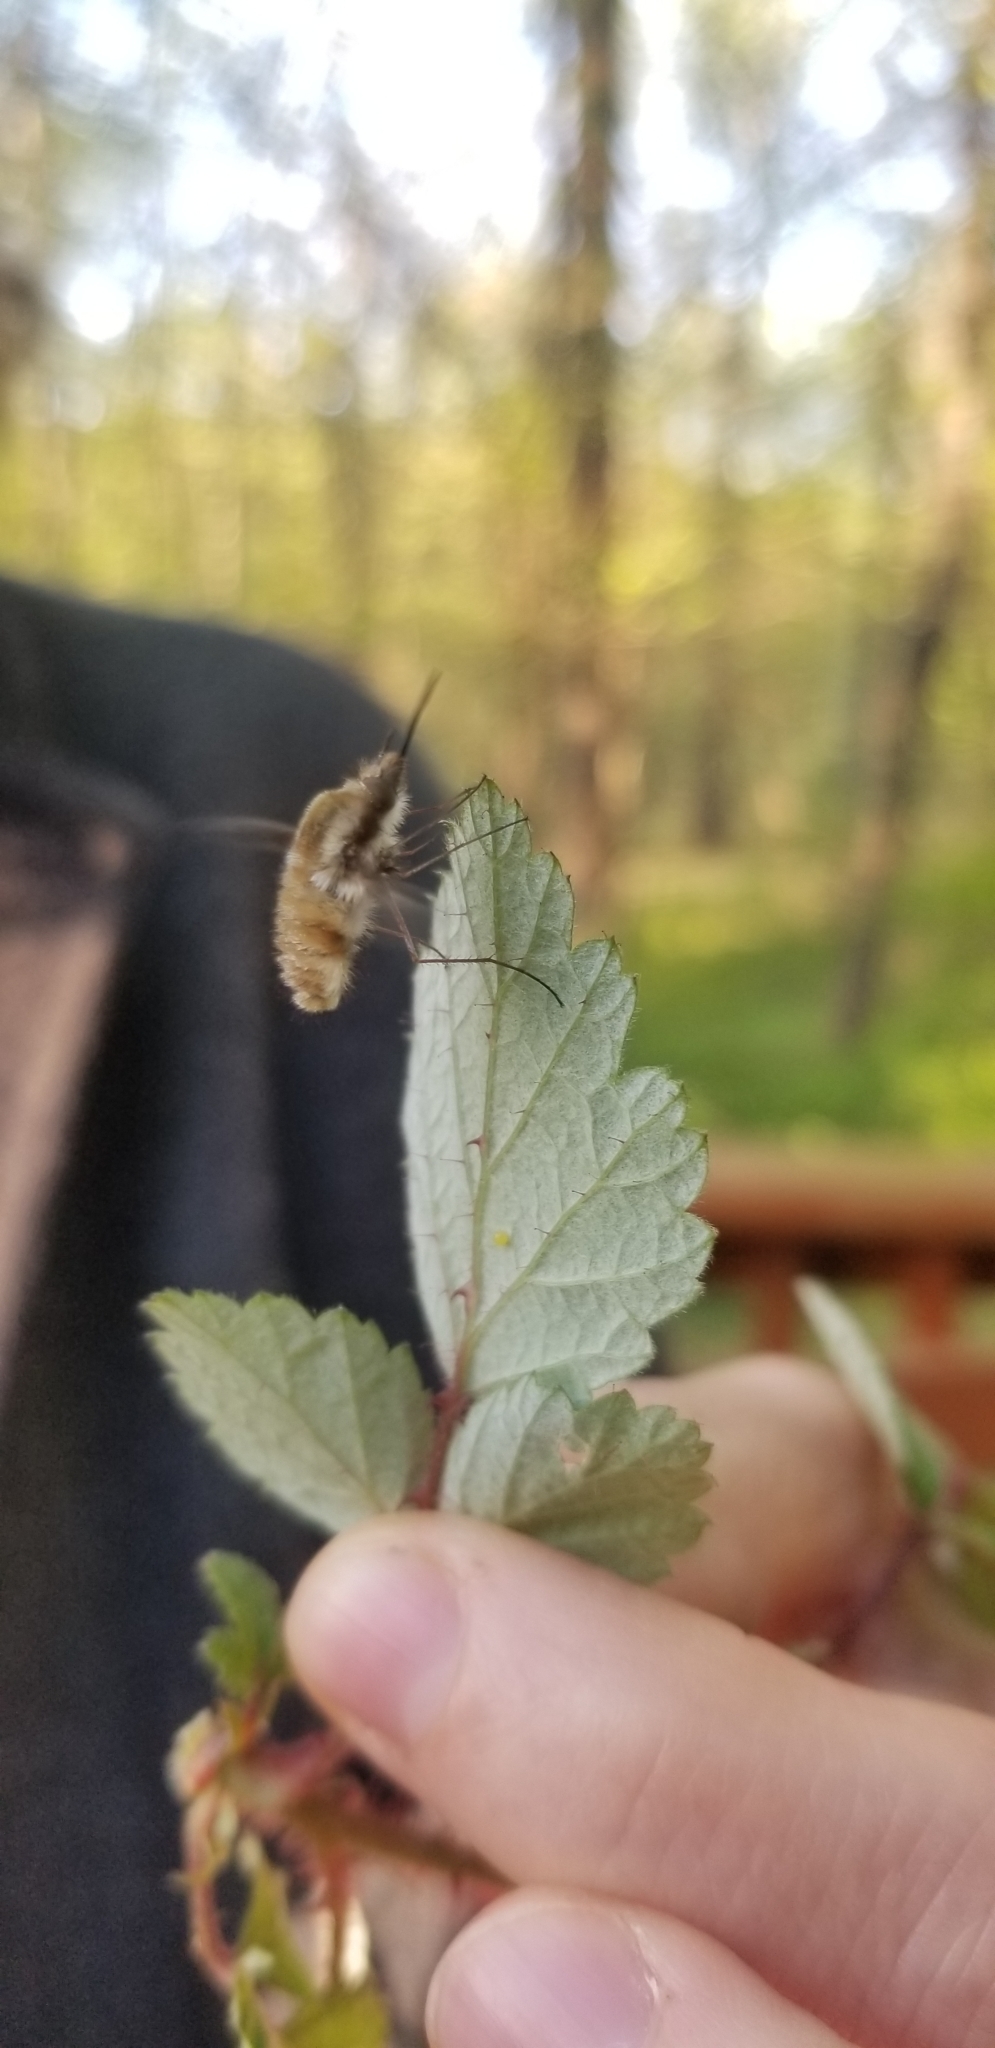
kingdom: Animalia
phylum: Arthropoda
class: Insecta
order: Diptera
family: Bombyliidae
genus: Bombylius
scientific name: Bombylius major
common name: Bee fly
